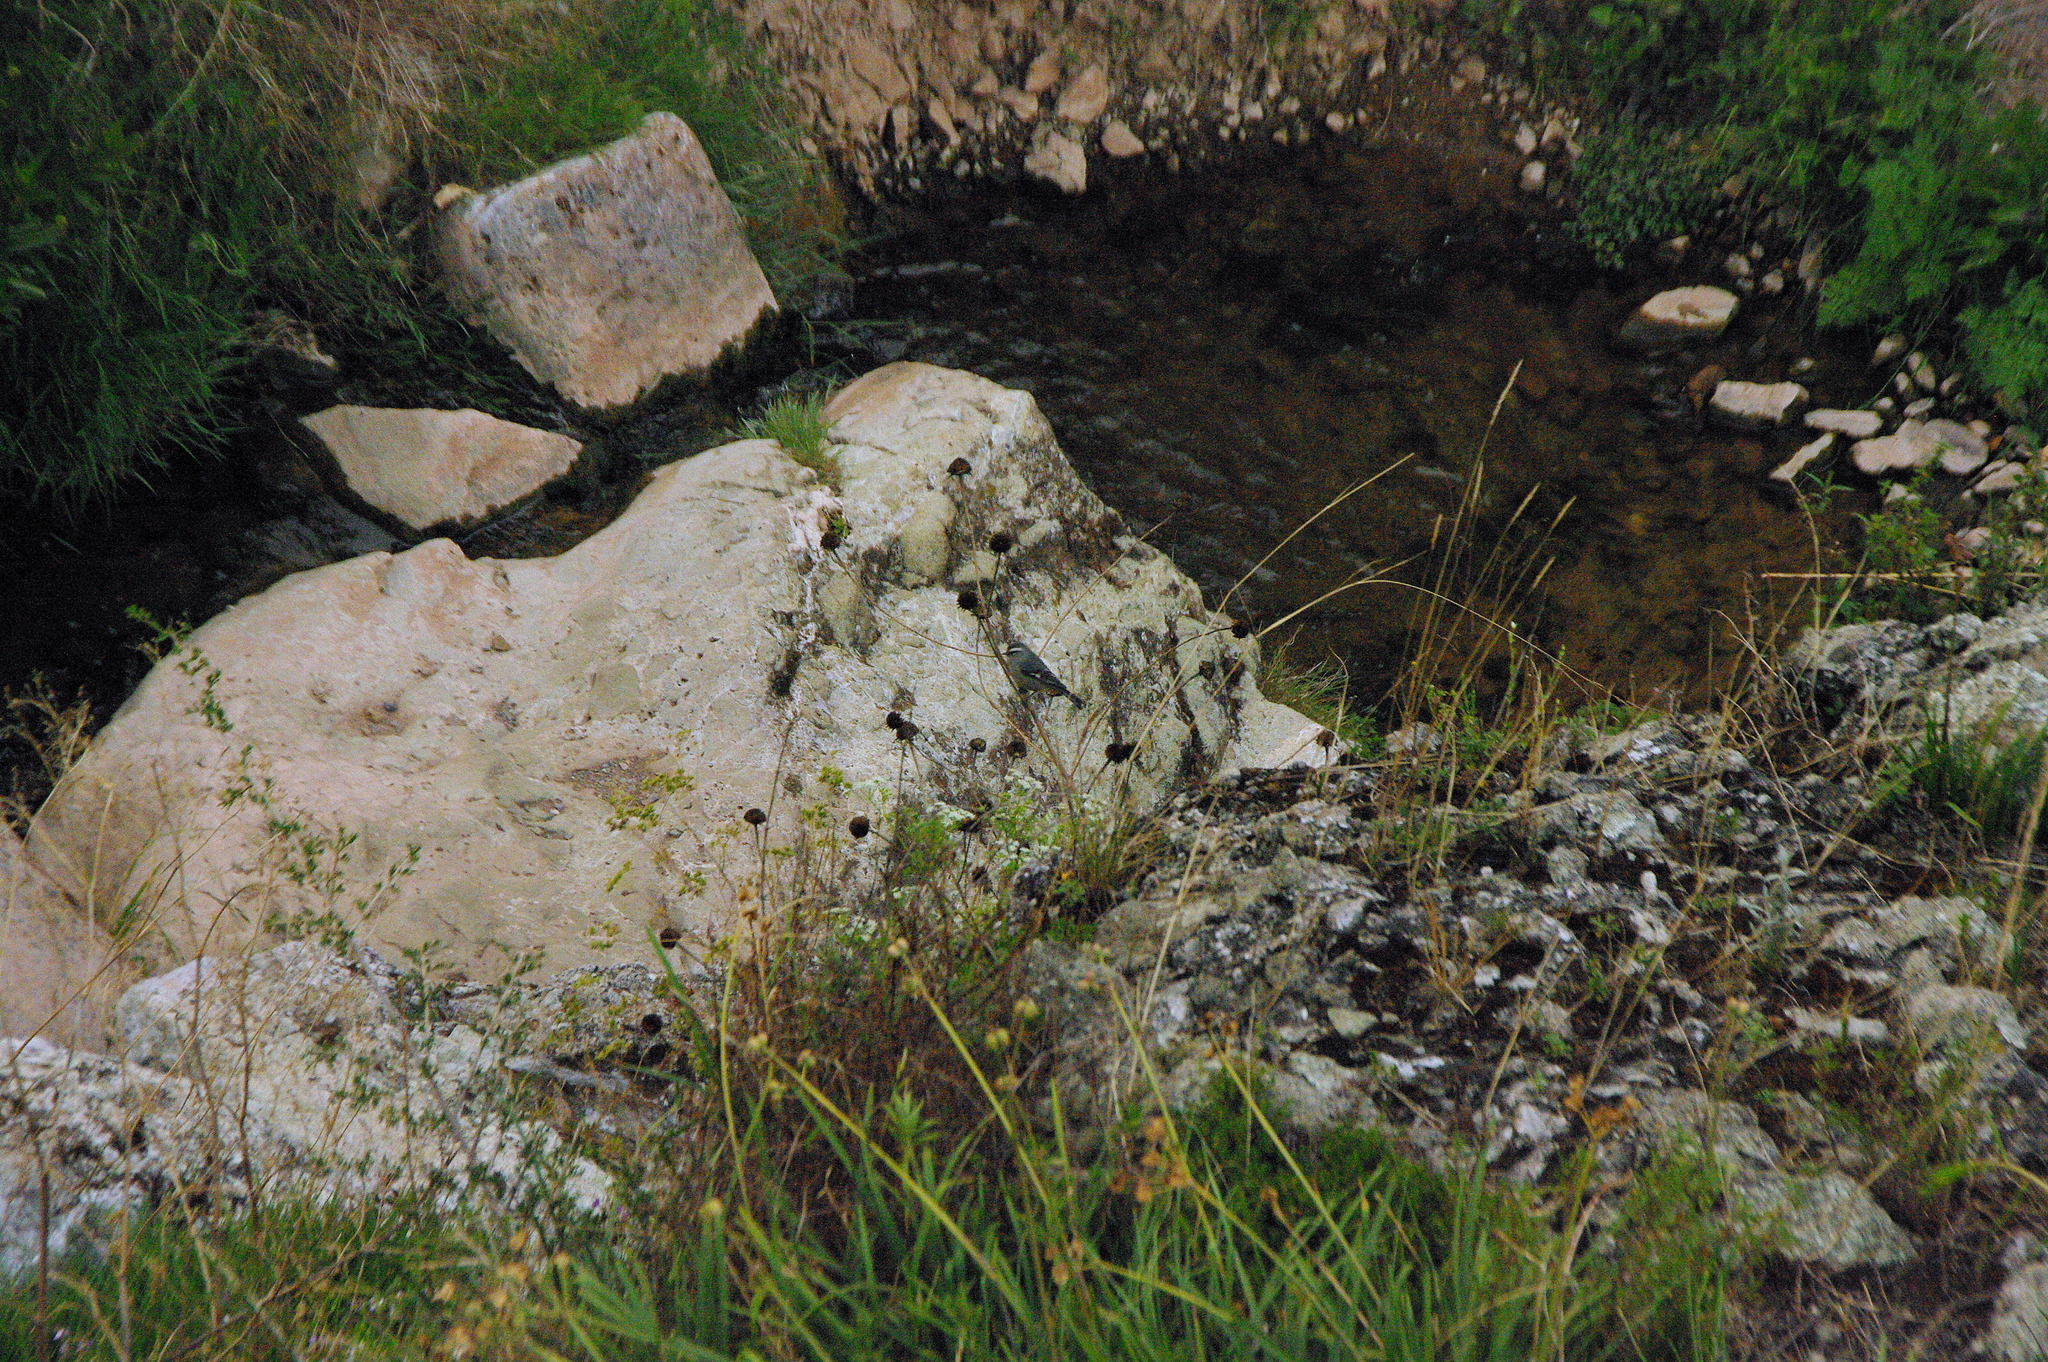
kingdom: Animalia
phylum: Chordata
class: Aves
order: Passeriformes
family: Thraupidae
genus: Conirostrum
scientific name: Conirostrum cinereum
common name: Cinereous conebill
